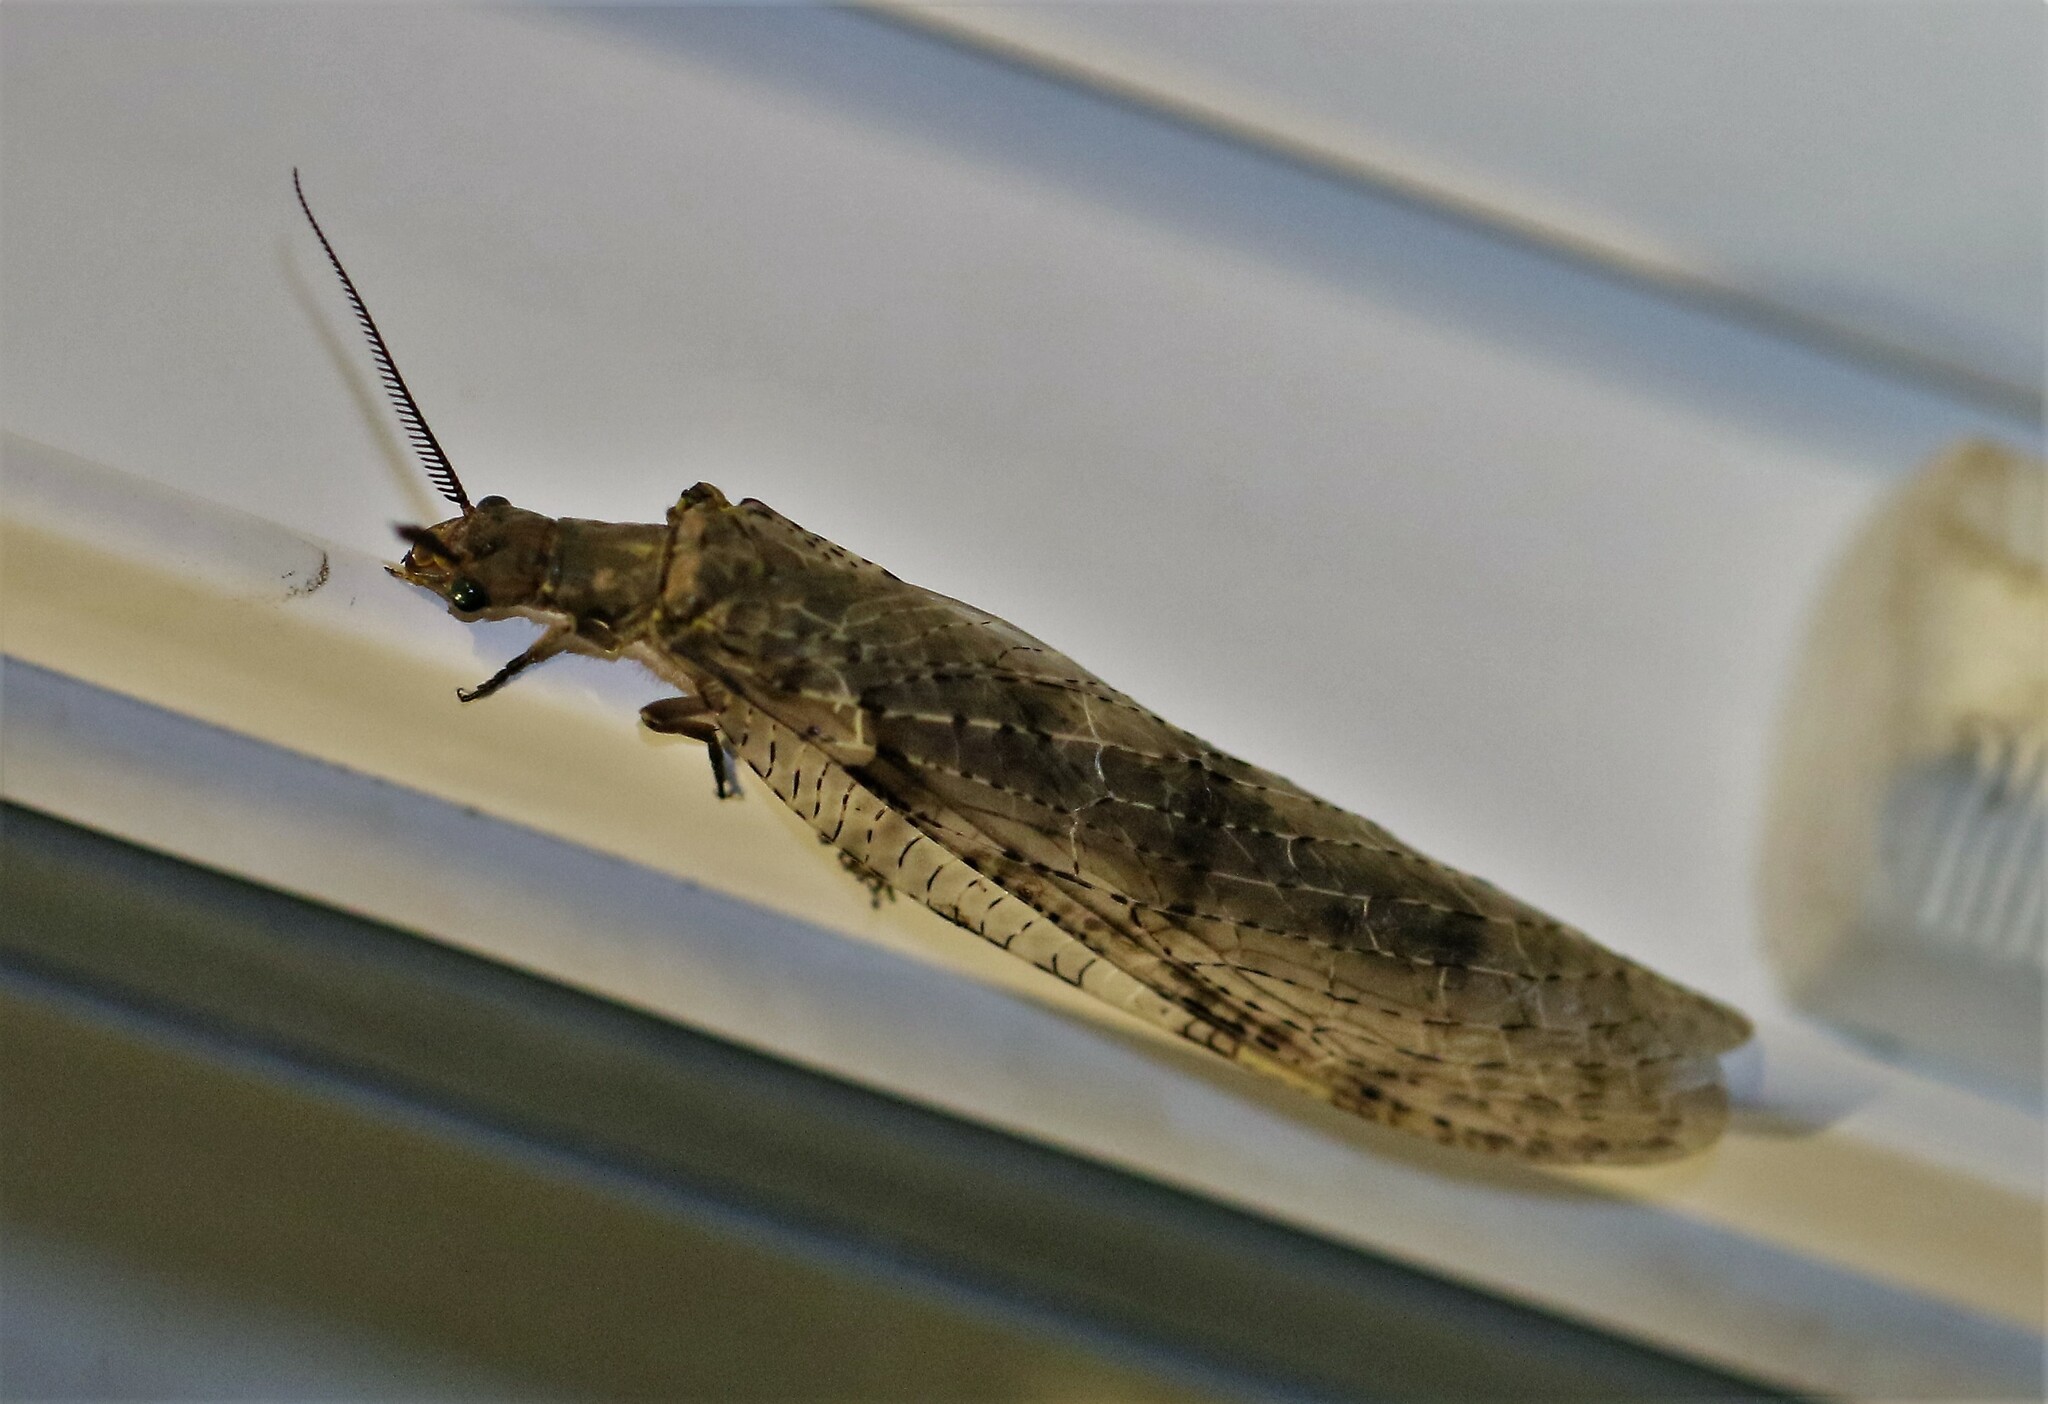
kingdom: Animalia
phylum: Arthropoda
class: Insecta
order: Megaloptera
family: Corydalidae
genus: Chauliodes
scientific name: Chauliodes pectinicornis
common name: Summer fishfly
